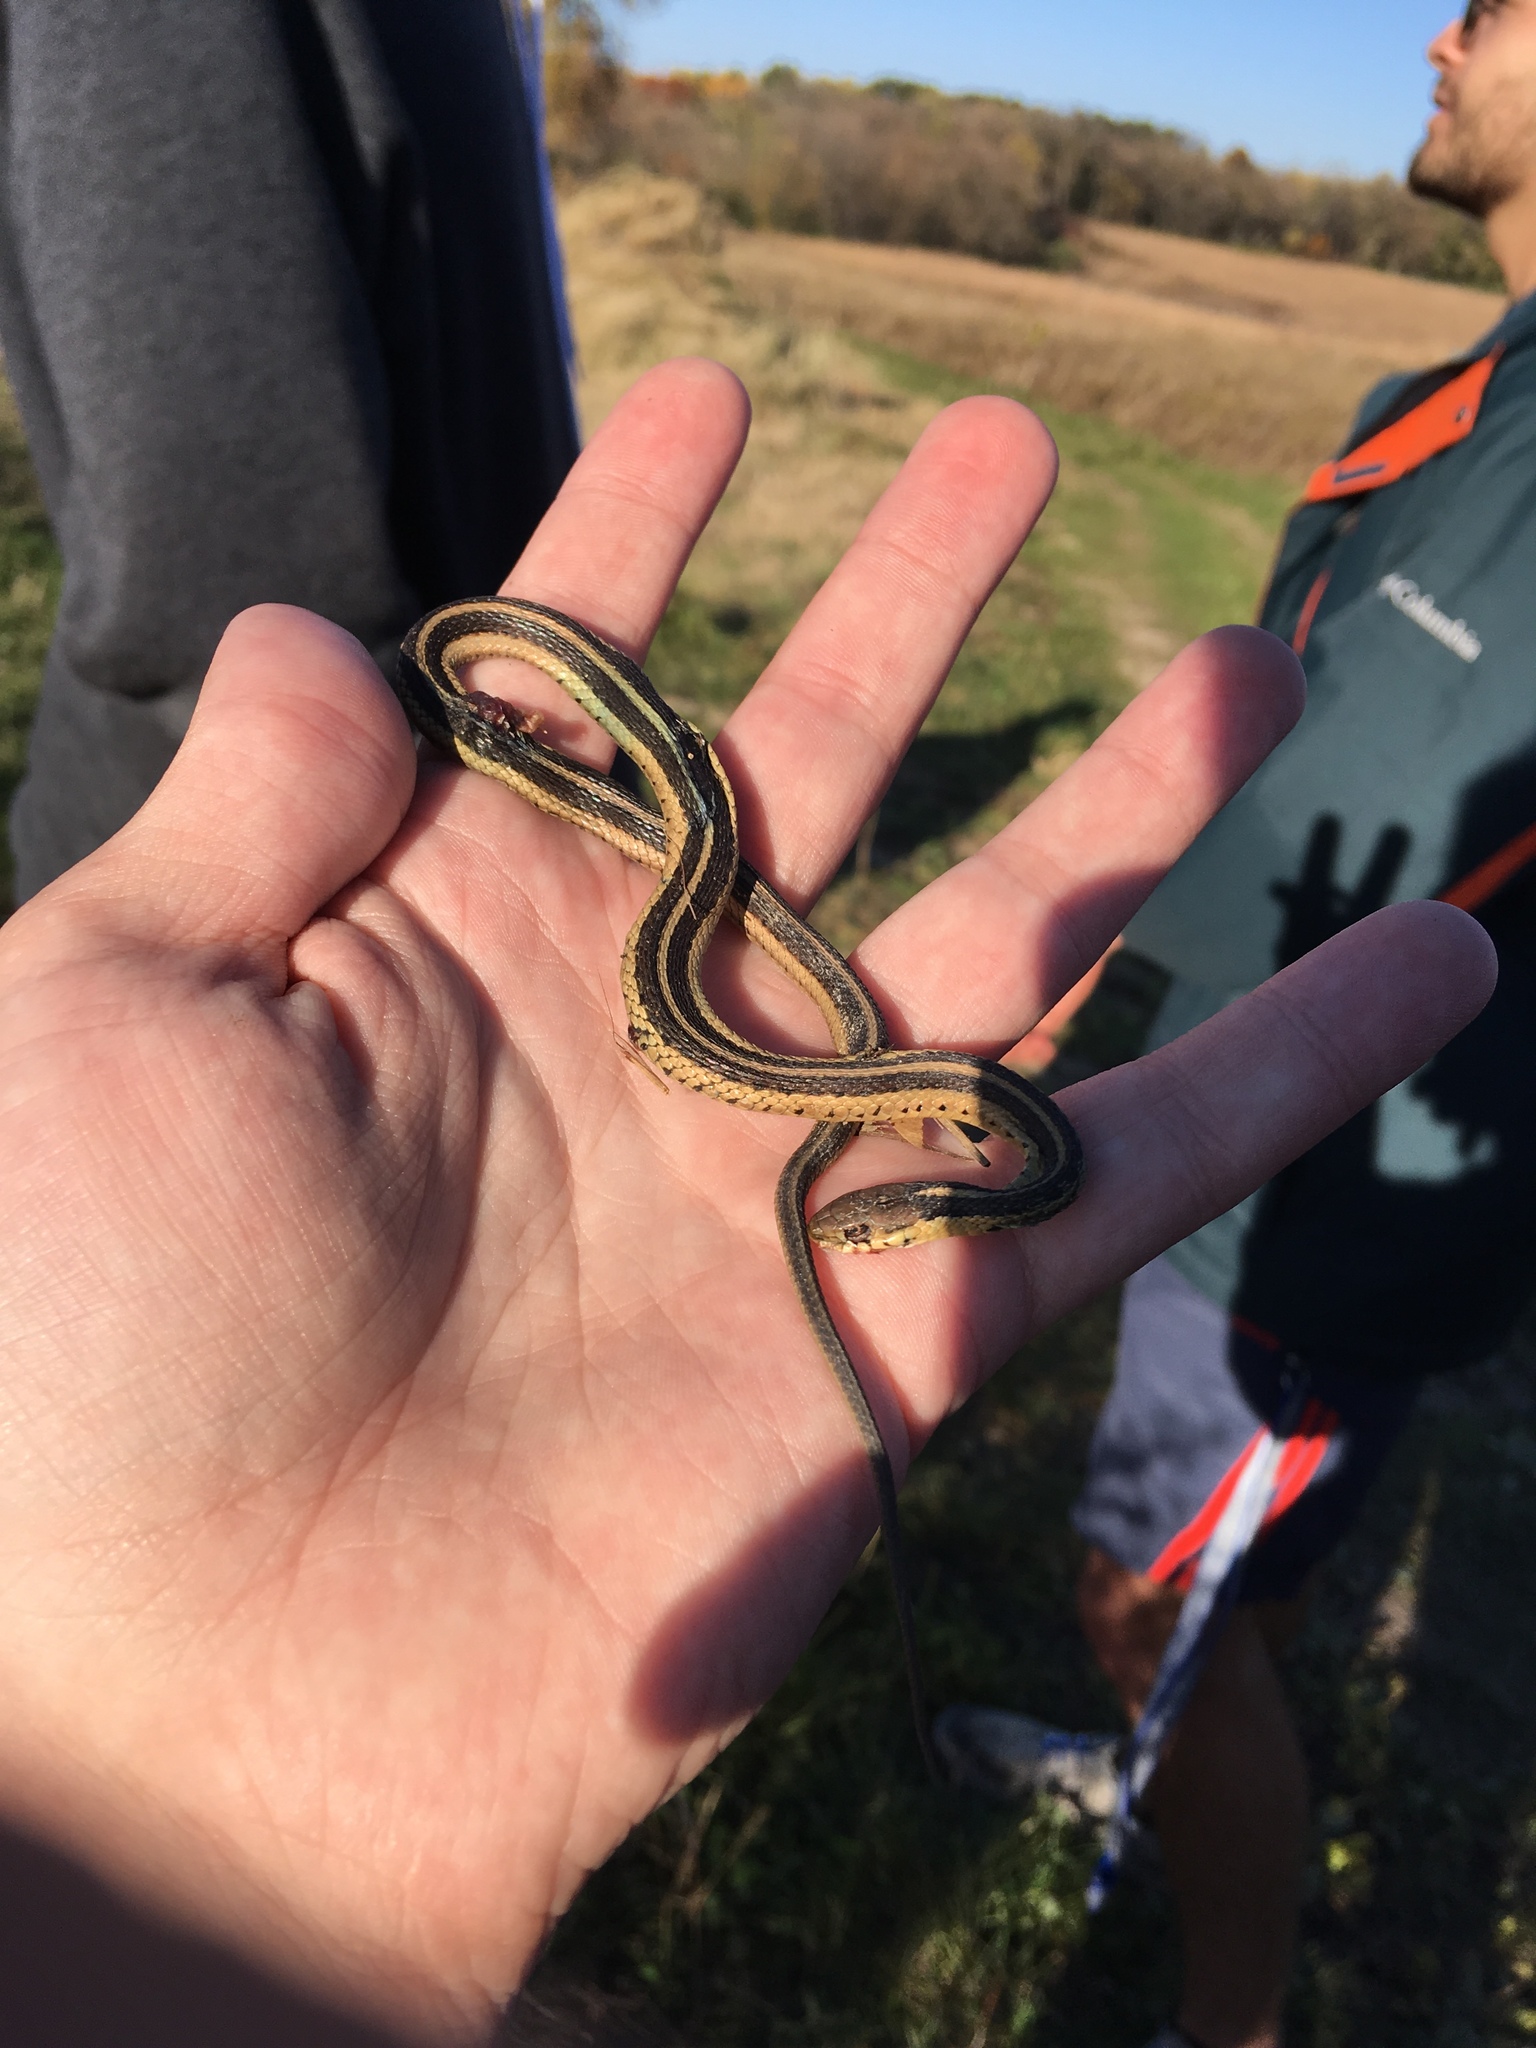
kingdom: Animalia
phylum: Chordata
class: Squamata
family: Colubridae
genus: Thamnophis
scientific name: Thamnophis sirtalis
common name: Common garter snake
